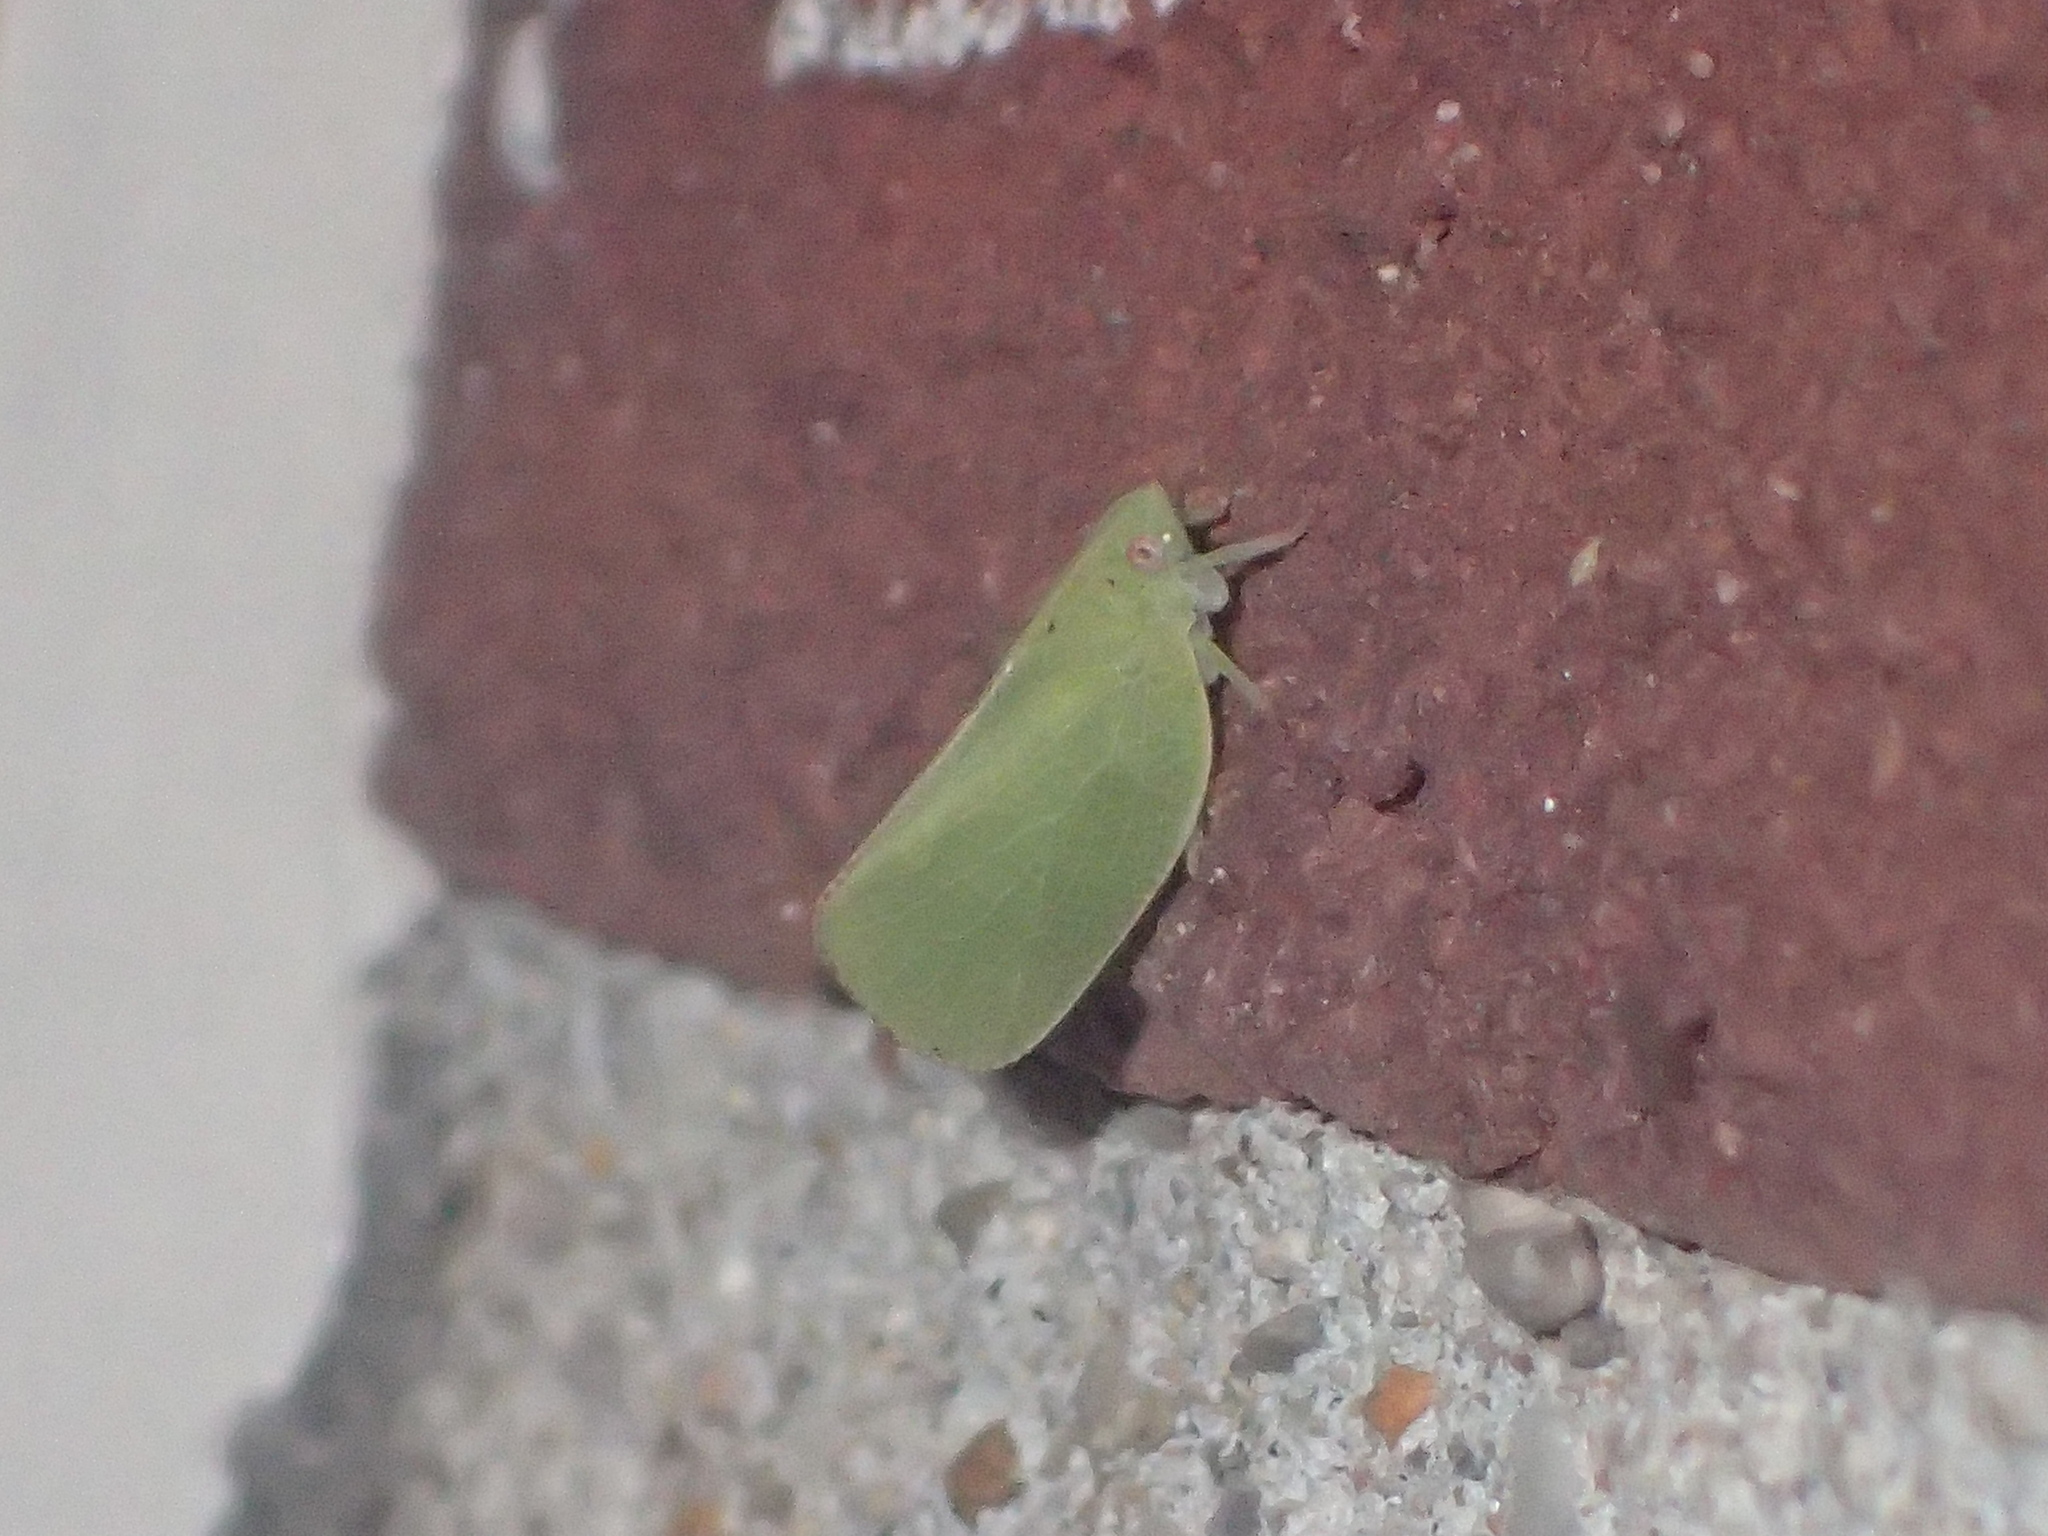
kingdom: Animalia
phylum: Arthropoda
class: Insecta
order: Hemiptera
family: Acanaloniidae
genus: Acanalonia
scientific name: Acanalonia conica
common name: Green cone-headed planthopper
